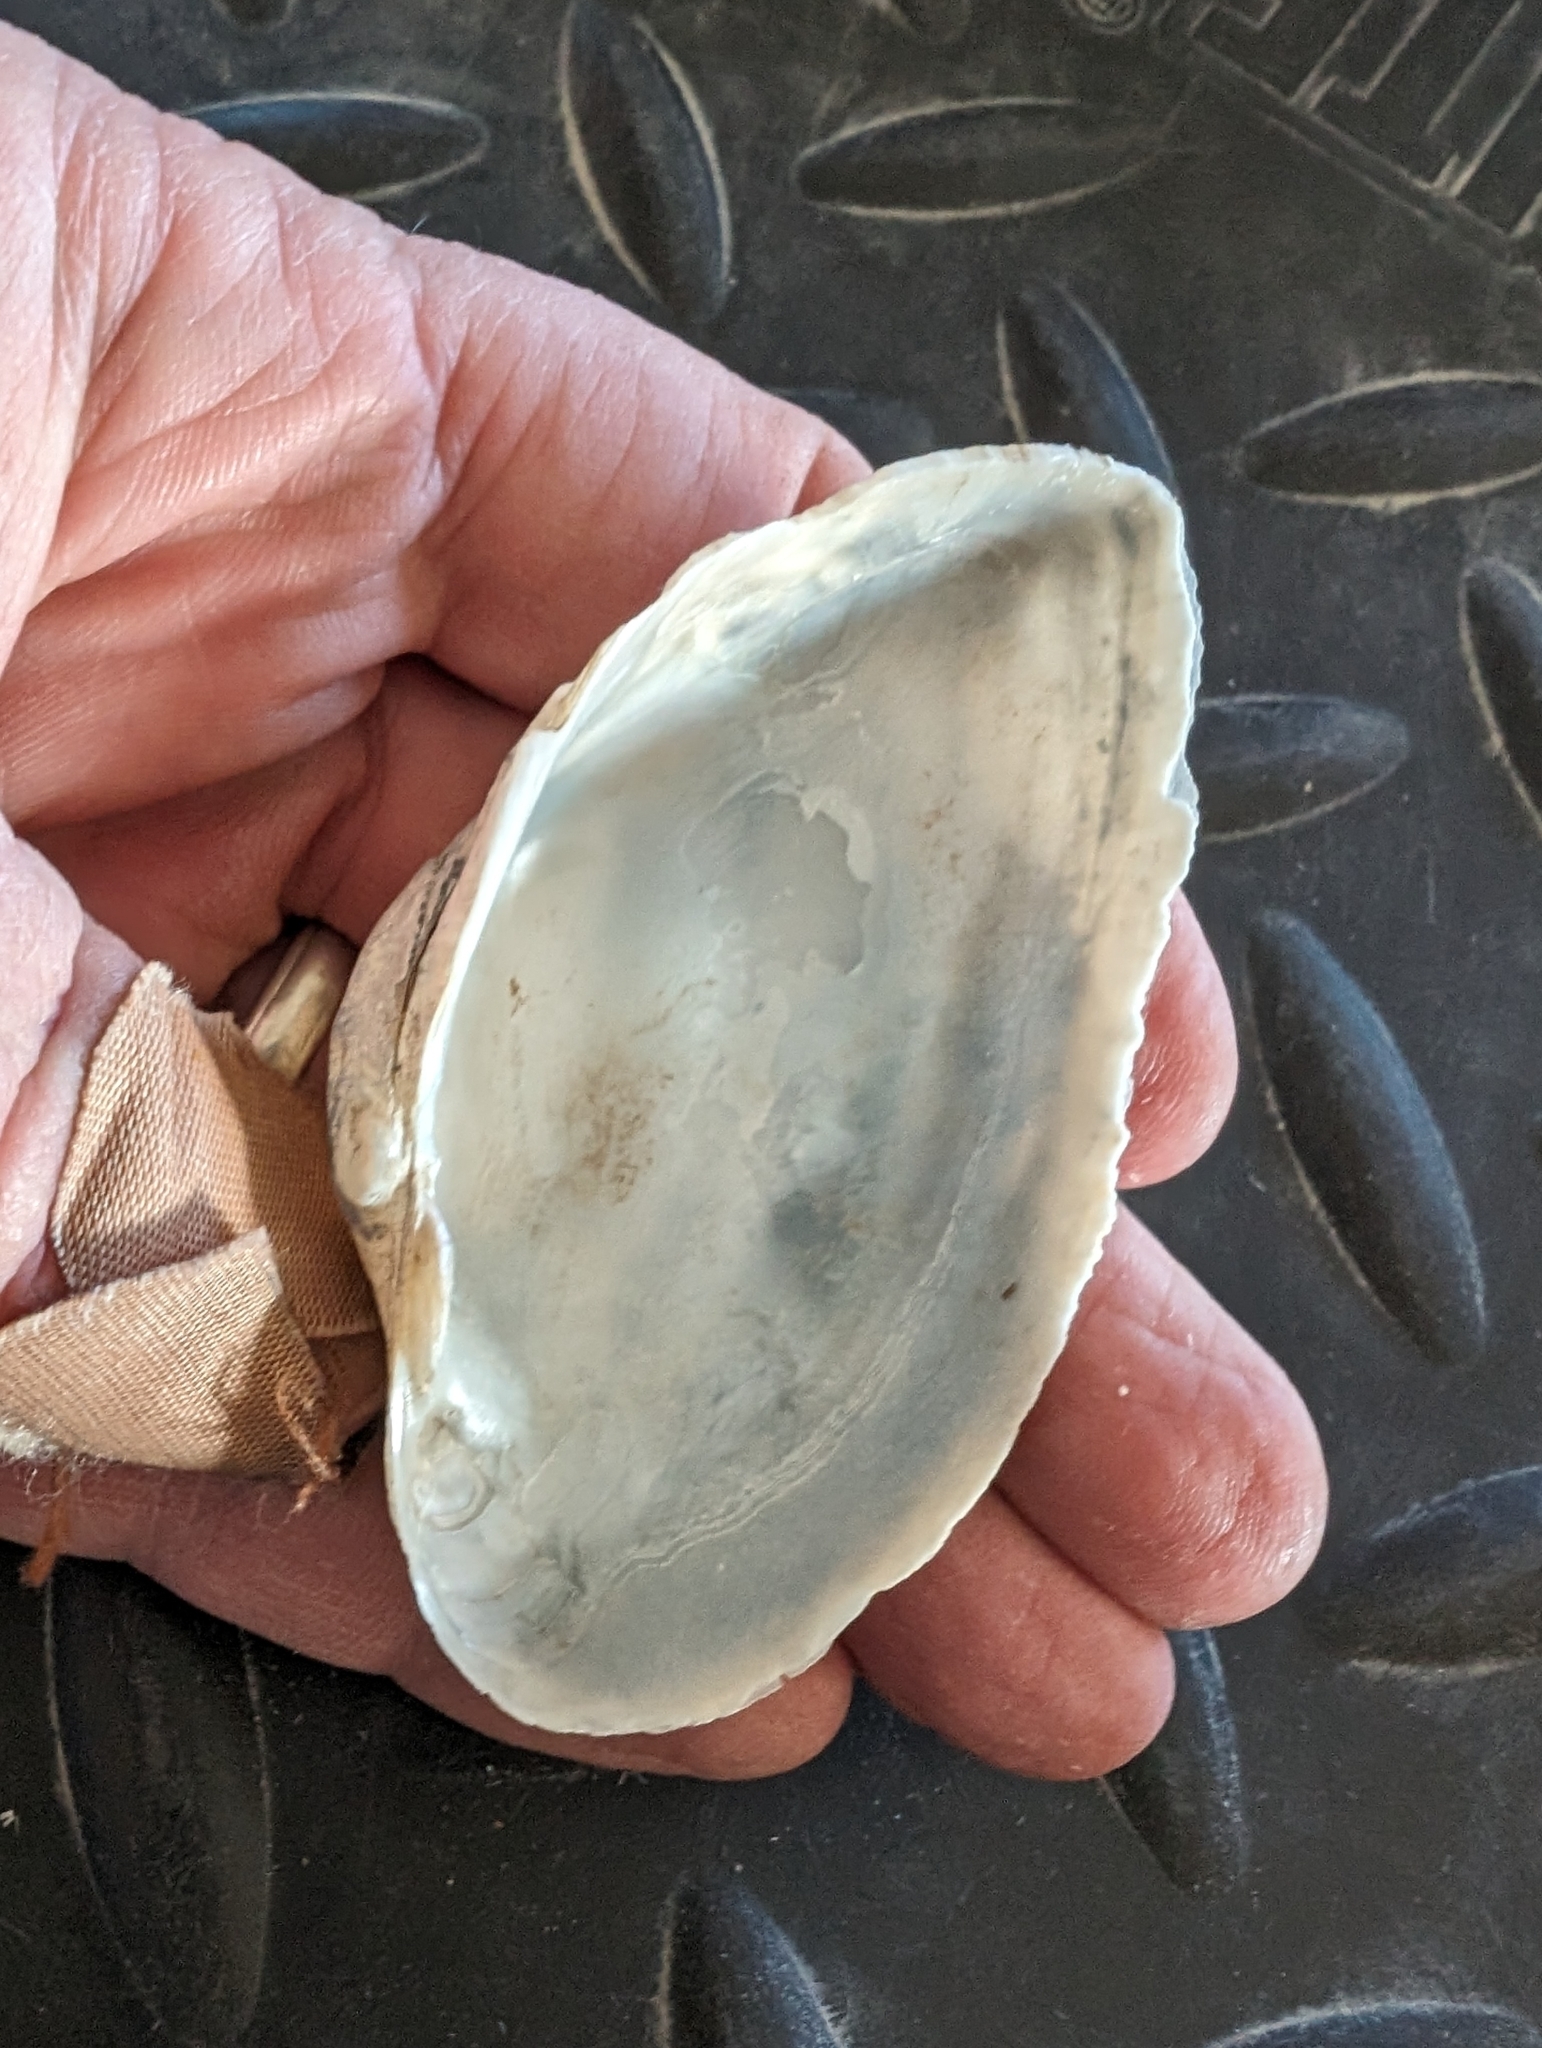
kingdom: Animalia
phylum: Mollusca
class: Bivalvia
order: Unionida
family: Unionidae
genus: Alasmidonta
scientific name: Alasmidonta marginata
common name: Elktoe
